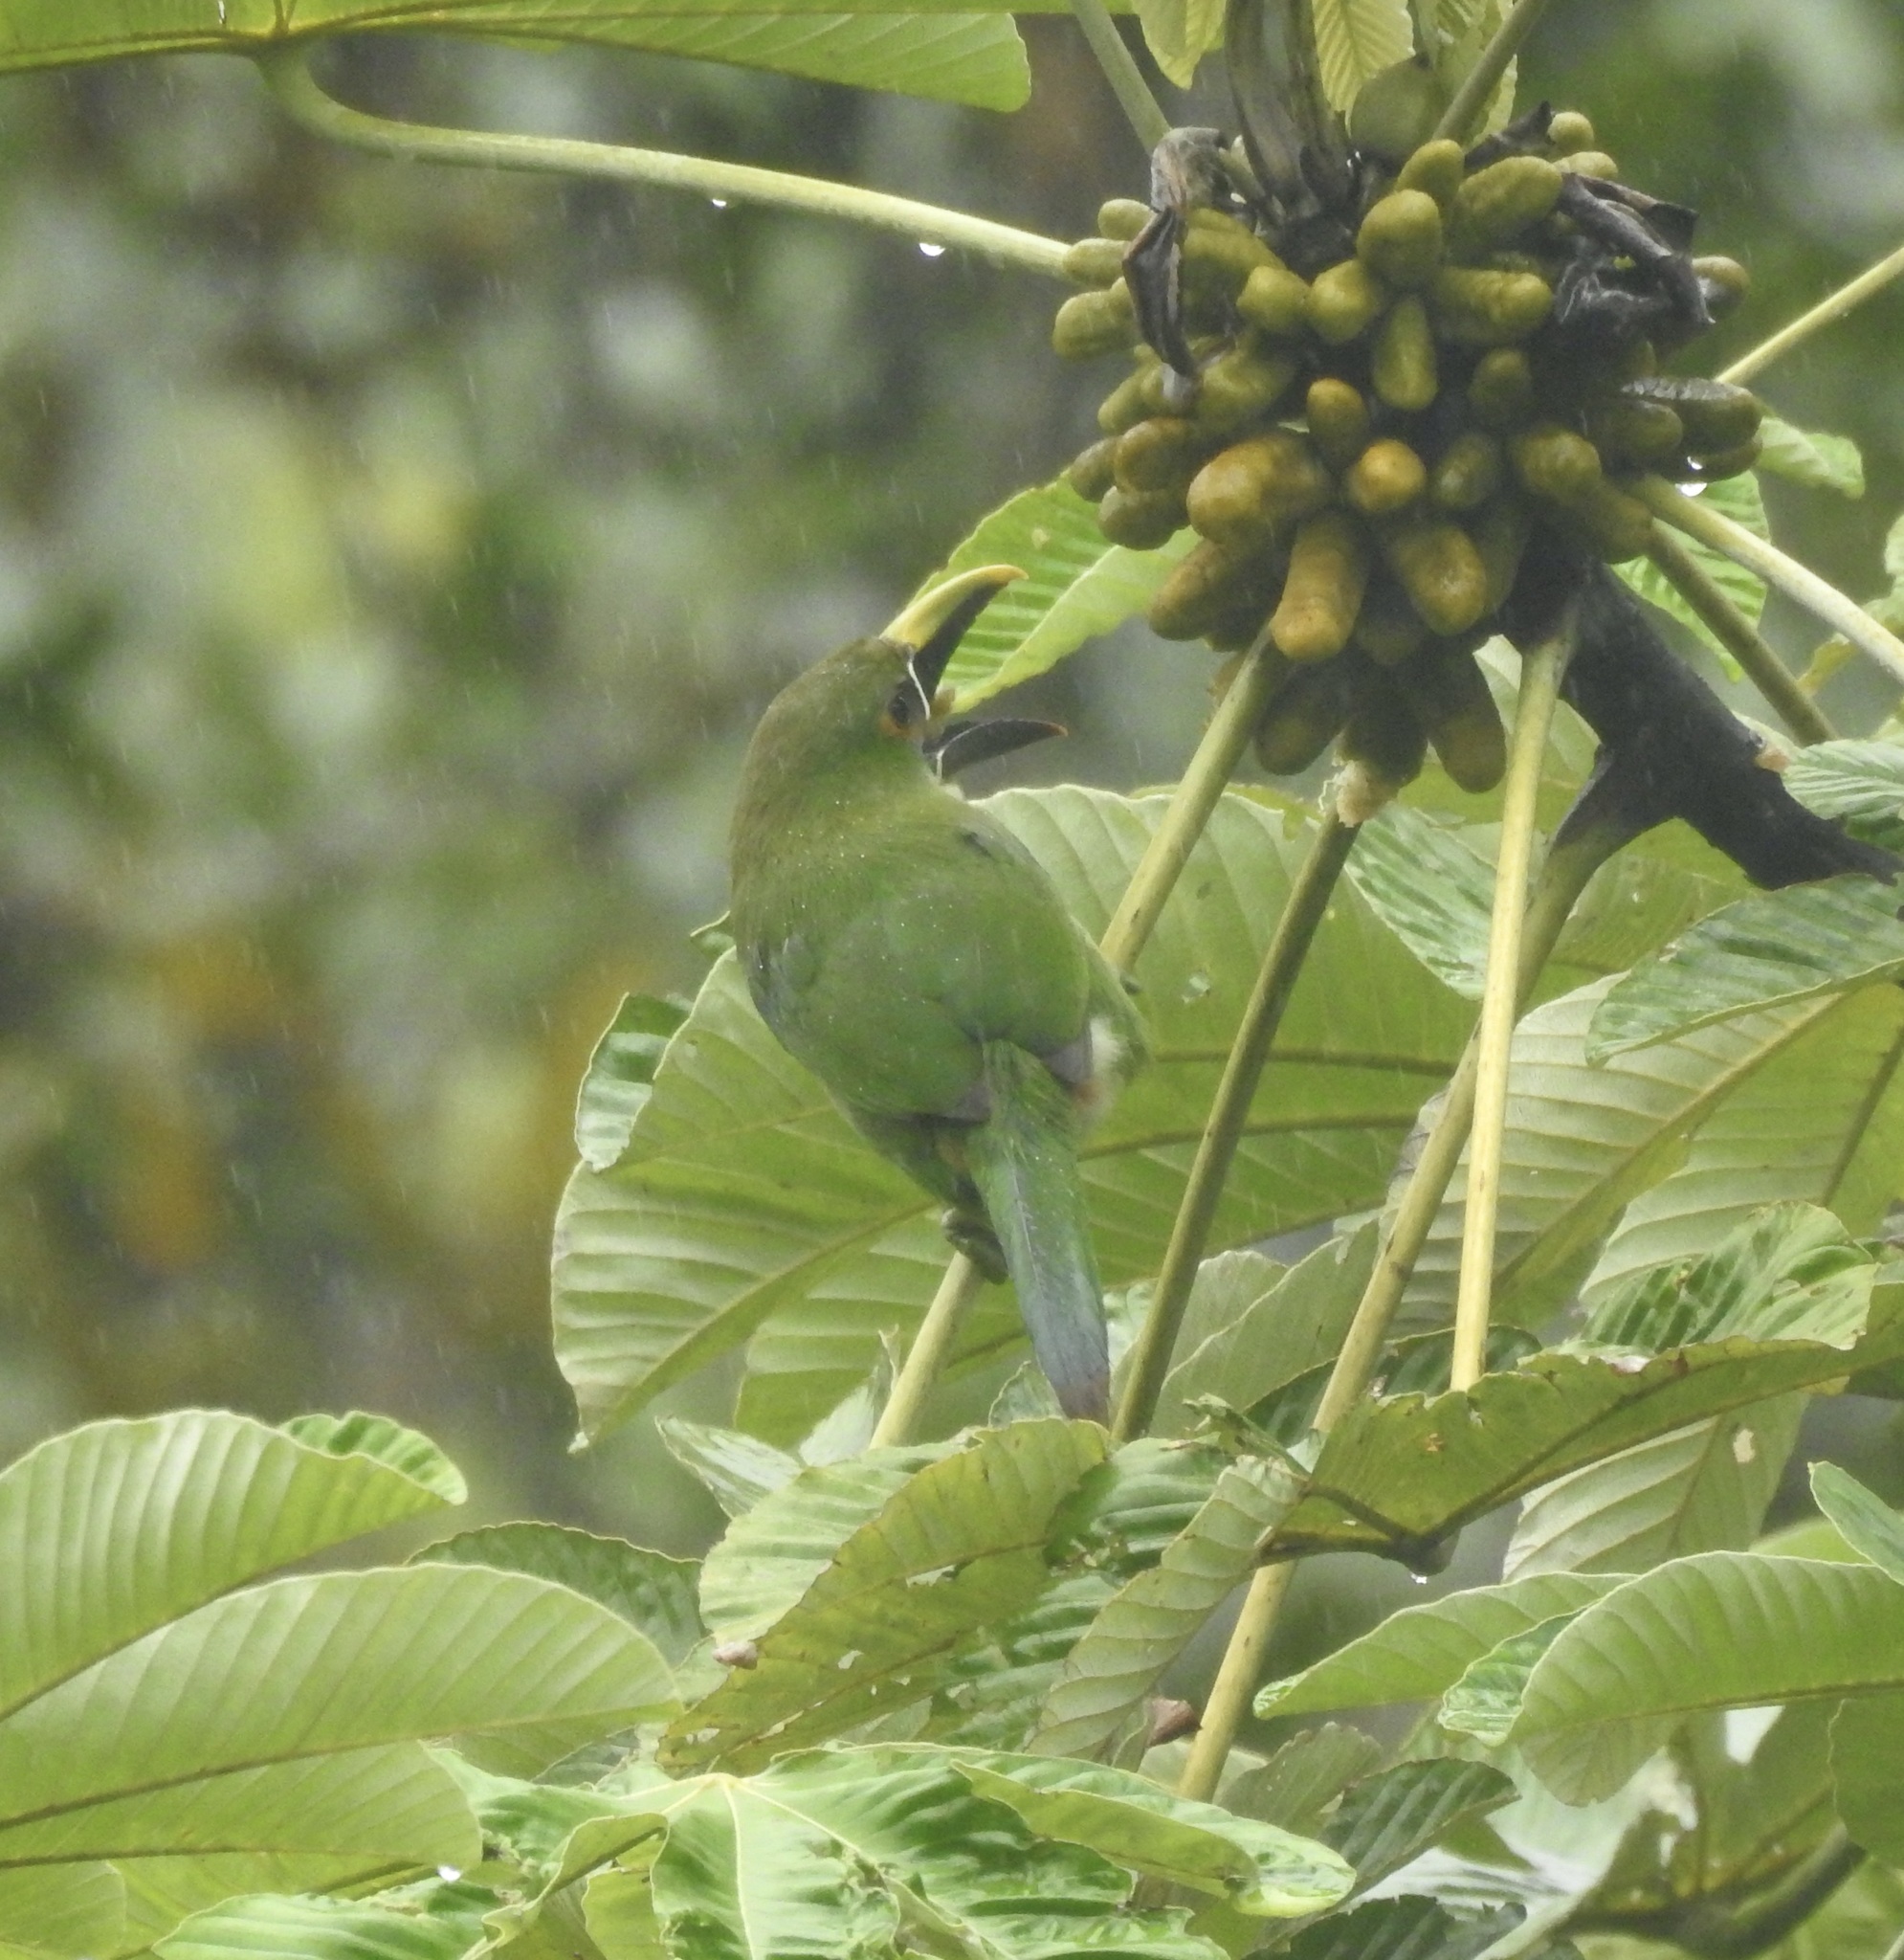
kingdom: Animalia
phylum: Chordata
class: Aves
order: Piciformes
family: Ramphastidae
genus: Aulacorhynchus
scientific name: Aulacorhynchus albivitta
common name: White-throated toucanet
